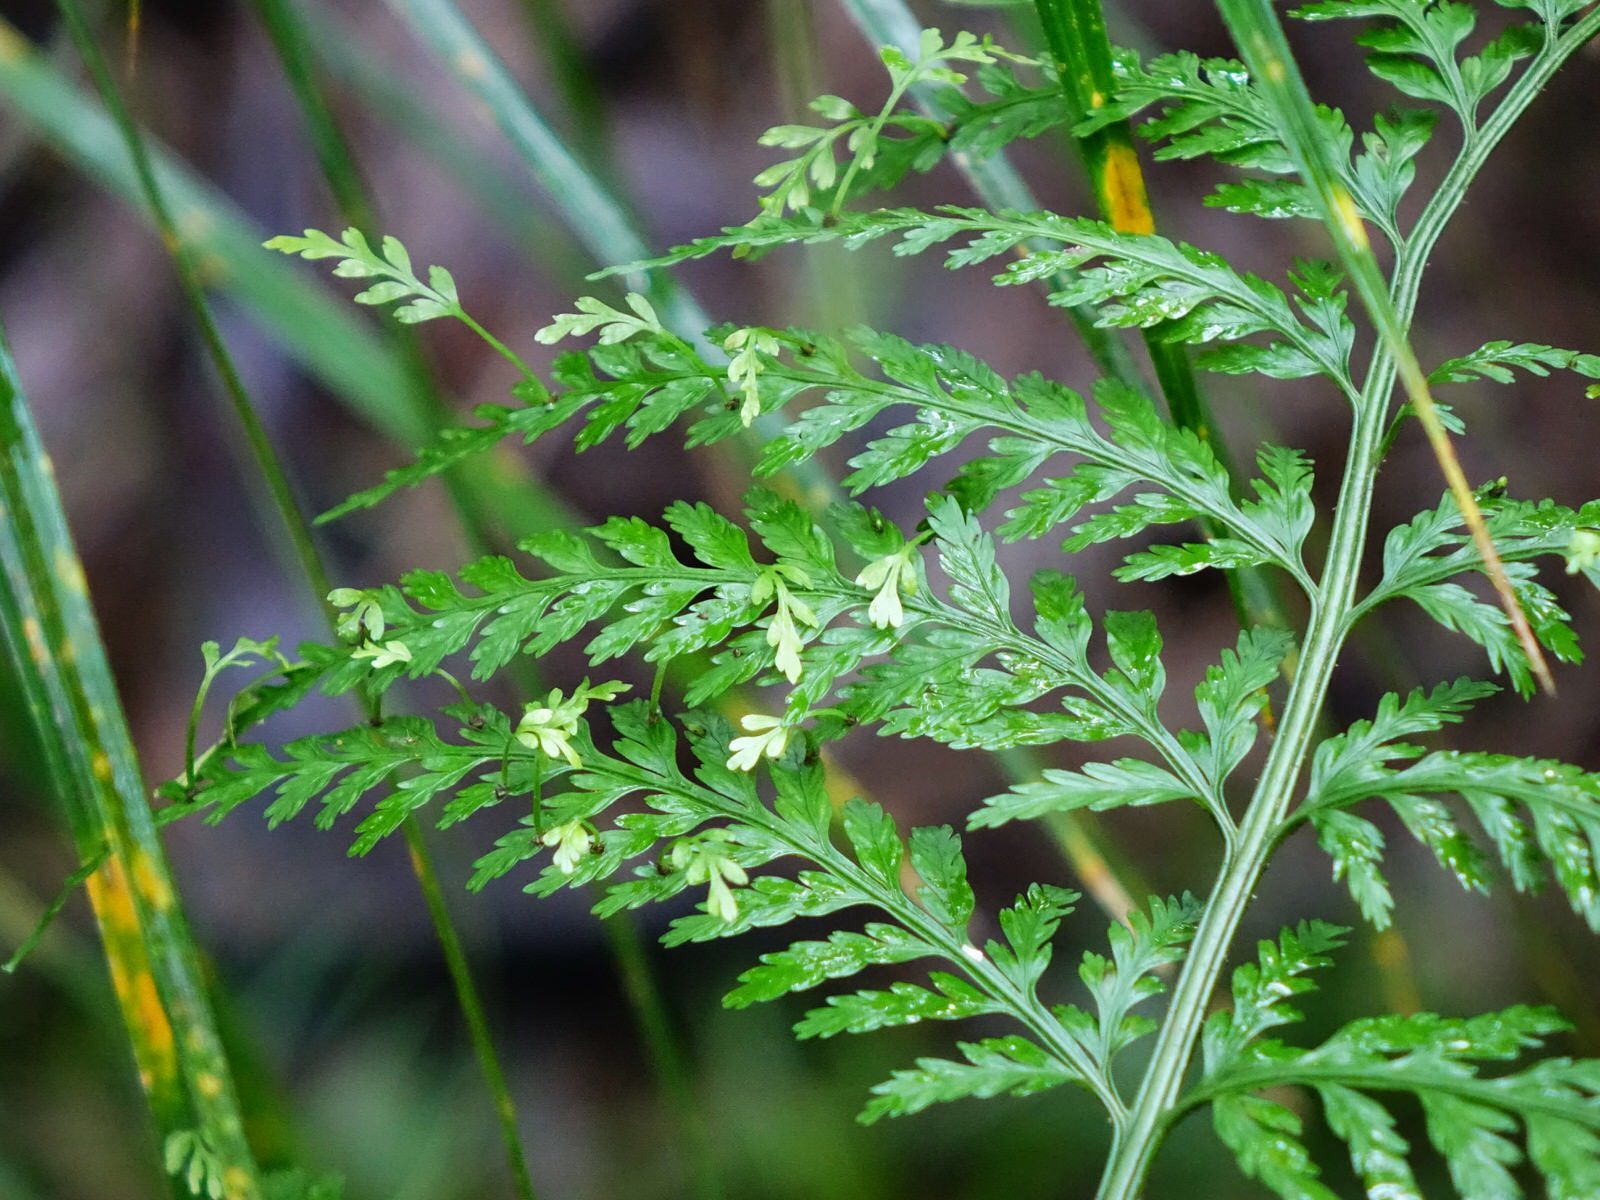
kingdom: Plantae
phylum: Tracheophyta
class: Polypodiopsida
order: Polypodiales
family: Aspleniaceae
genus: Asplenium
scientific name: Asplenium bulbiferum
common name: Mother fern
